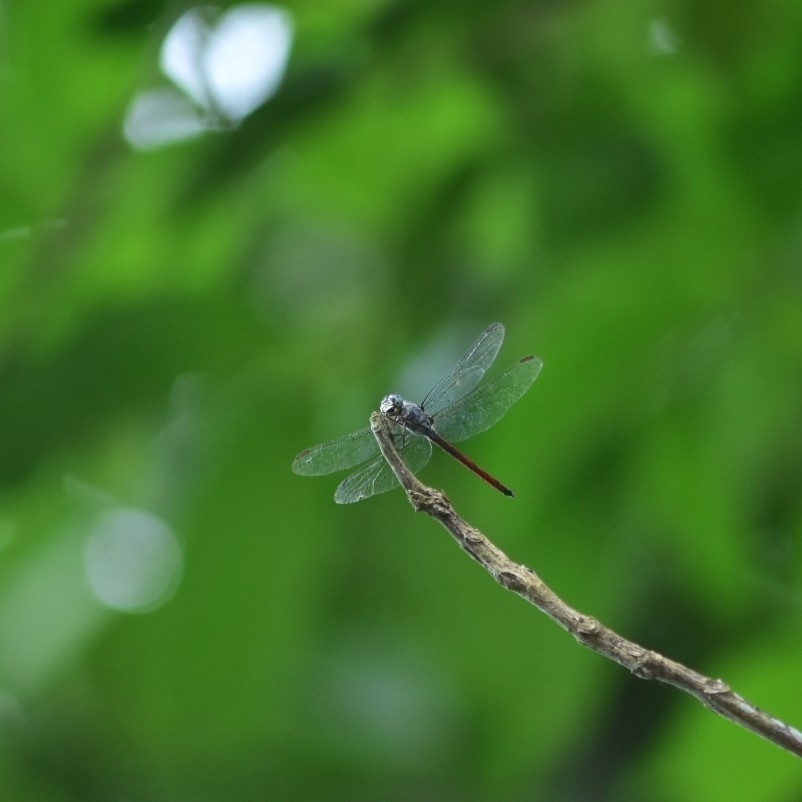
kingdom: Animalia
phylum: Arthropoda
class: Insecta
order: Odonata
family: Libellulidae
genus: Lathrecista
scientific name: Lathrecista asiatica
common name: Scarlet grenadier
